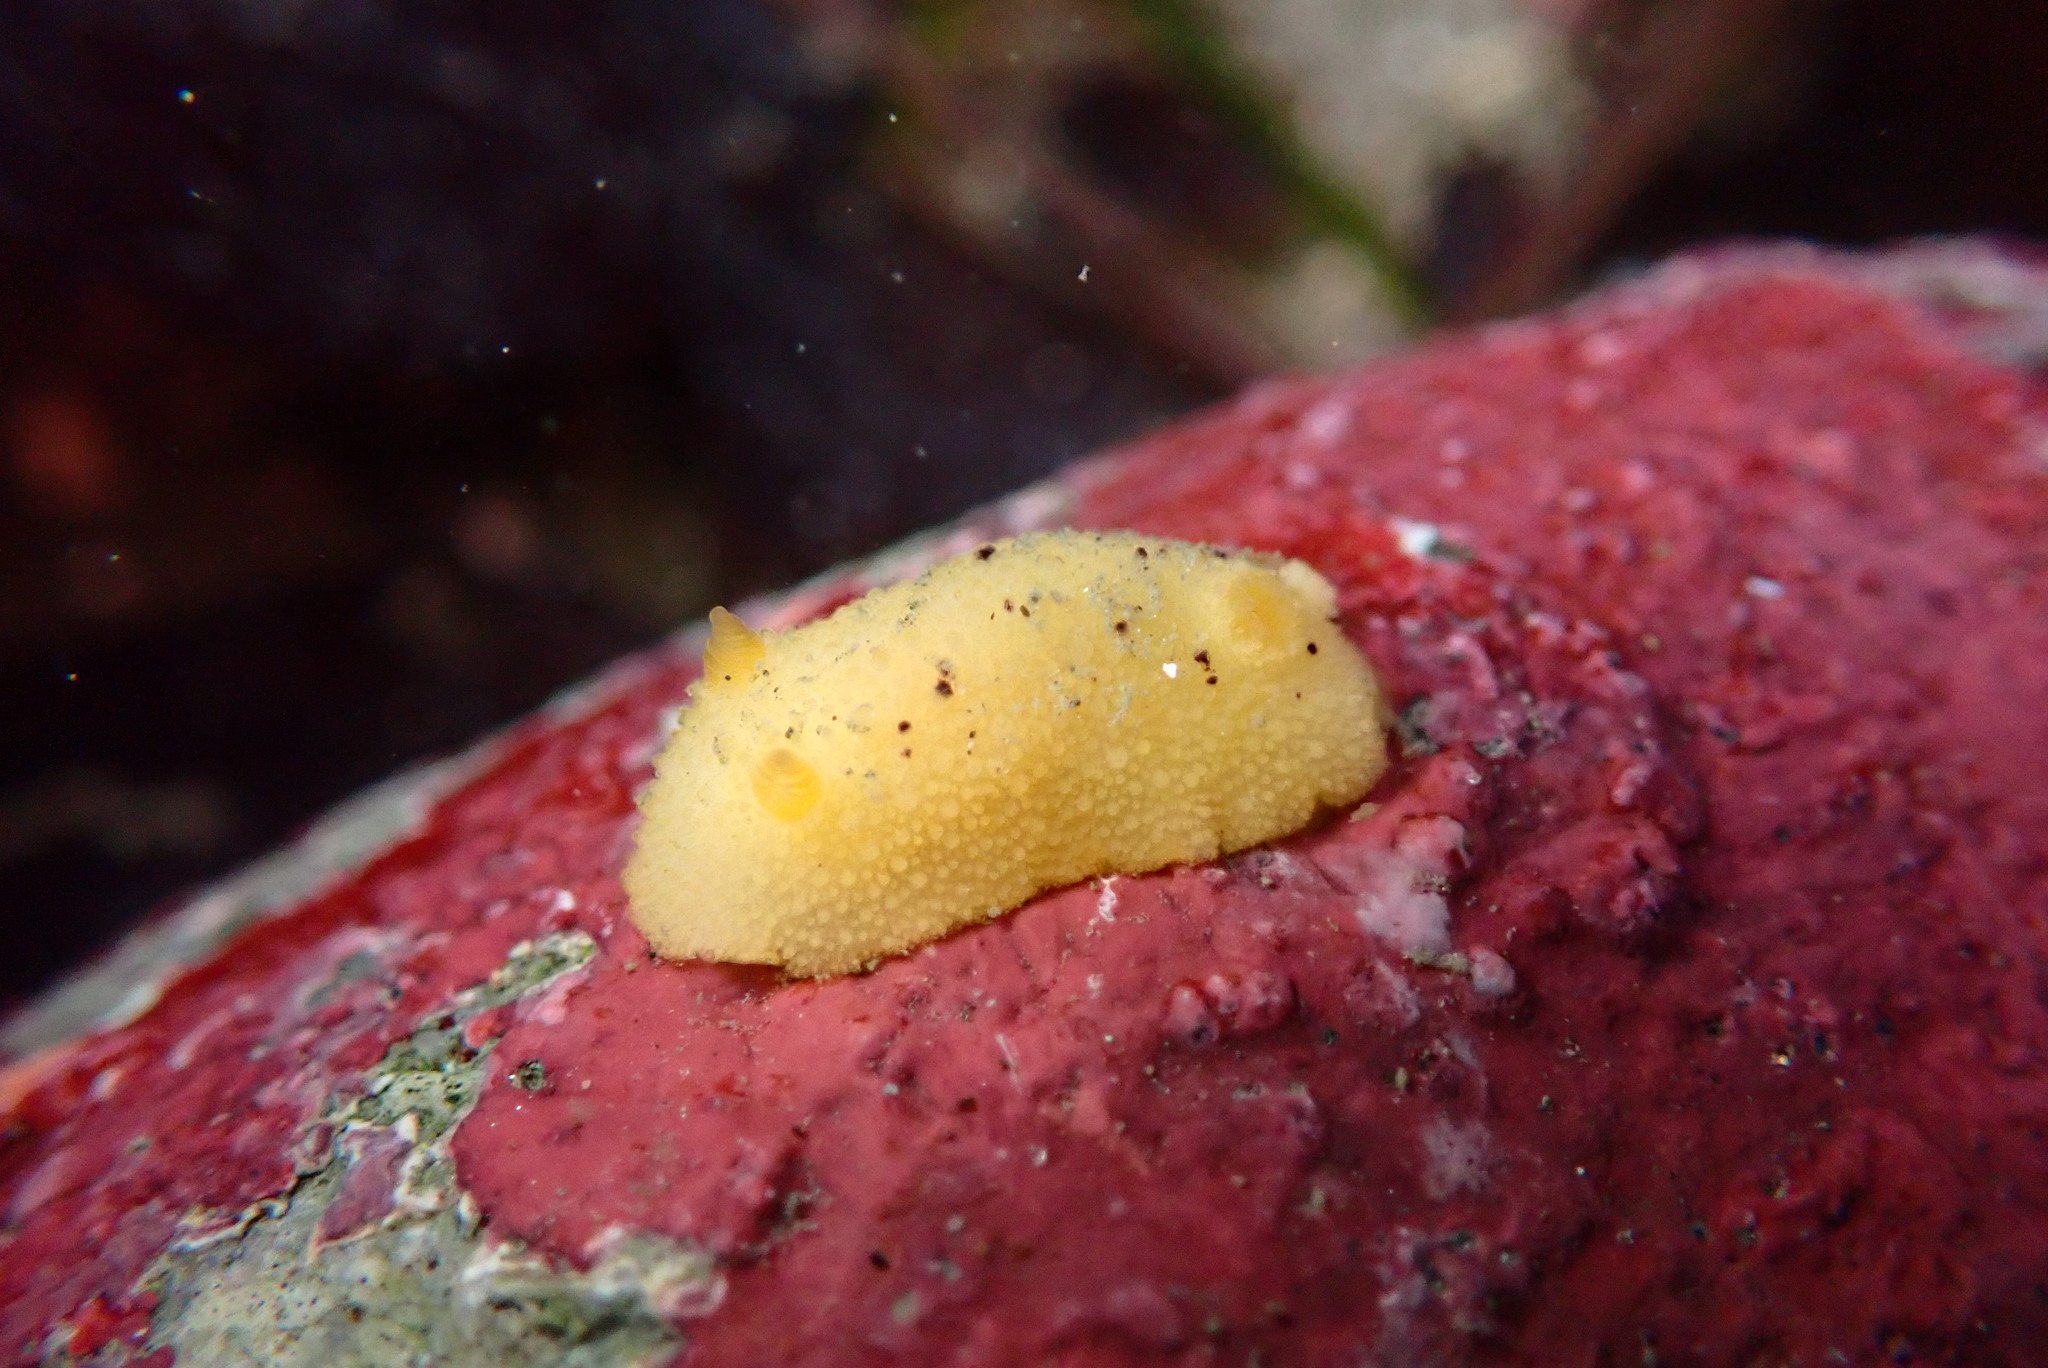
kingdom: Animalia
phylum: Mollusca
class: Gastropoda
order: Nudibranchia
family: Dorididae
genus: Doris
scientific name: Doris montereyensis
